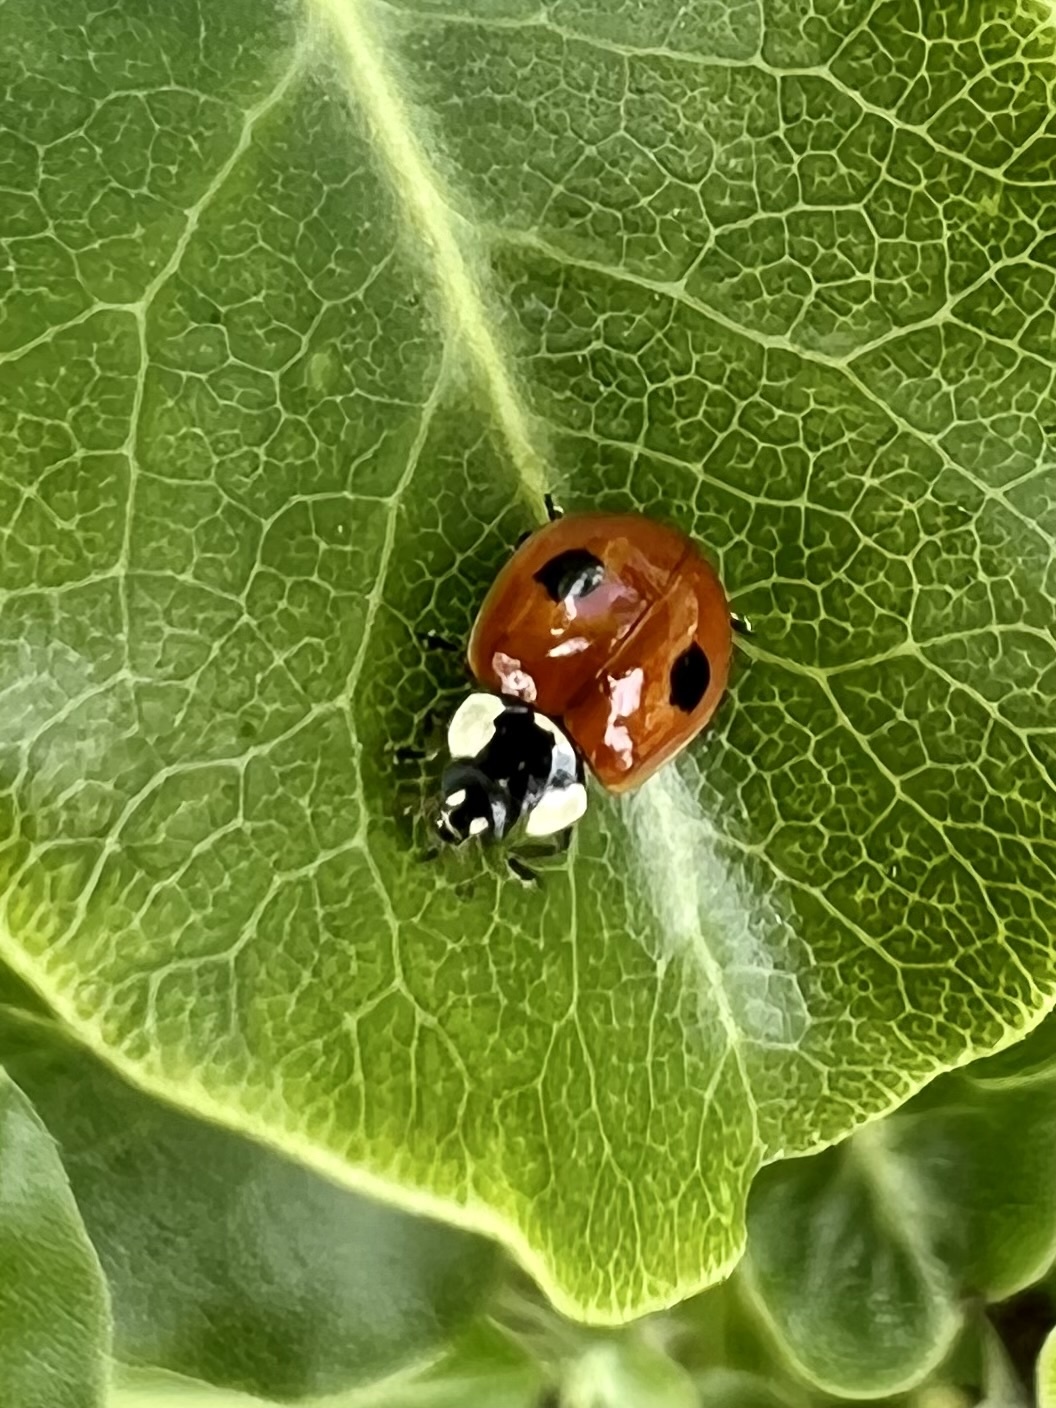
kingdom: Animalia
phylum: Arthropoda
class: Insecta
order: Coleoptera
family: Coccinellidae
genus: Adalia
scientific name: Adalia bipunctata
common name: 2-spot ladybird
